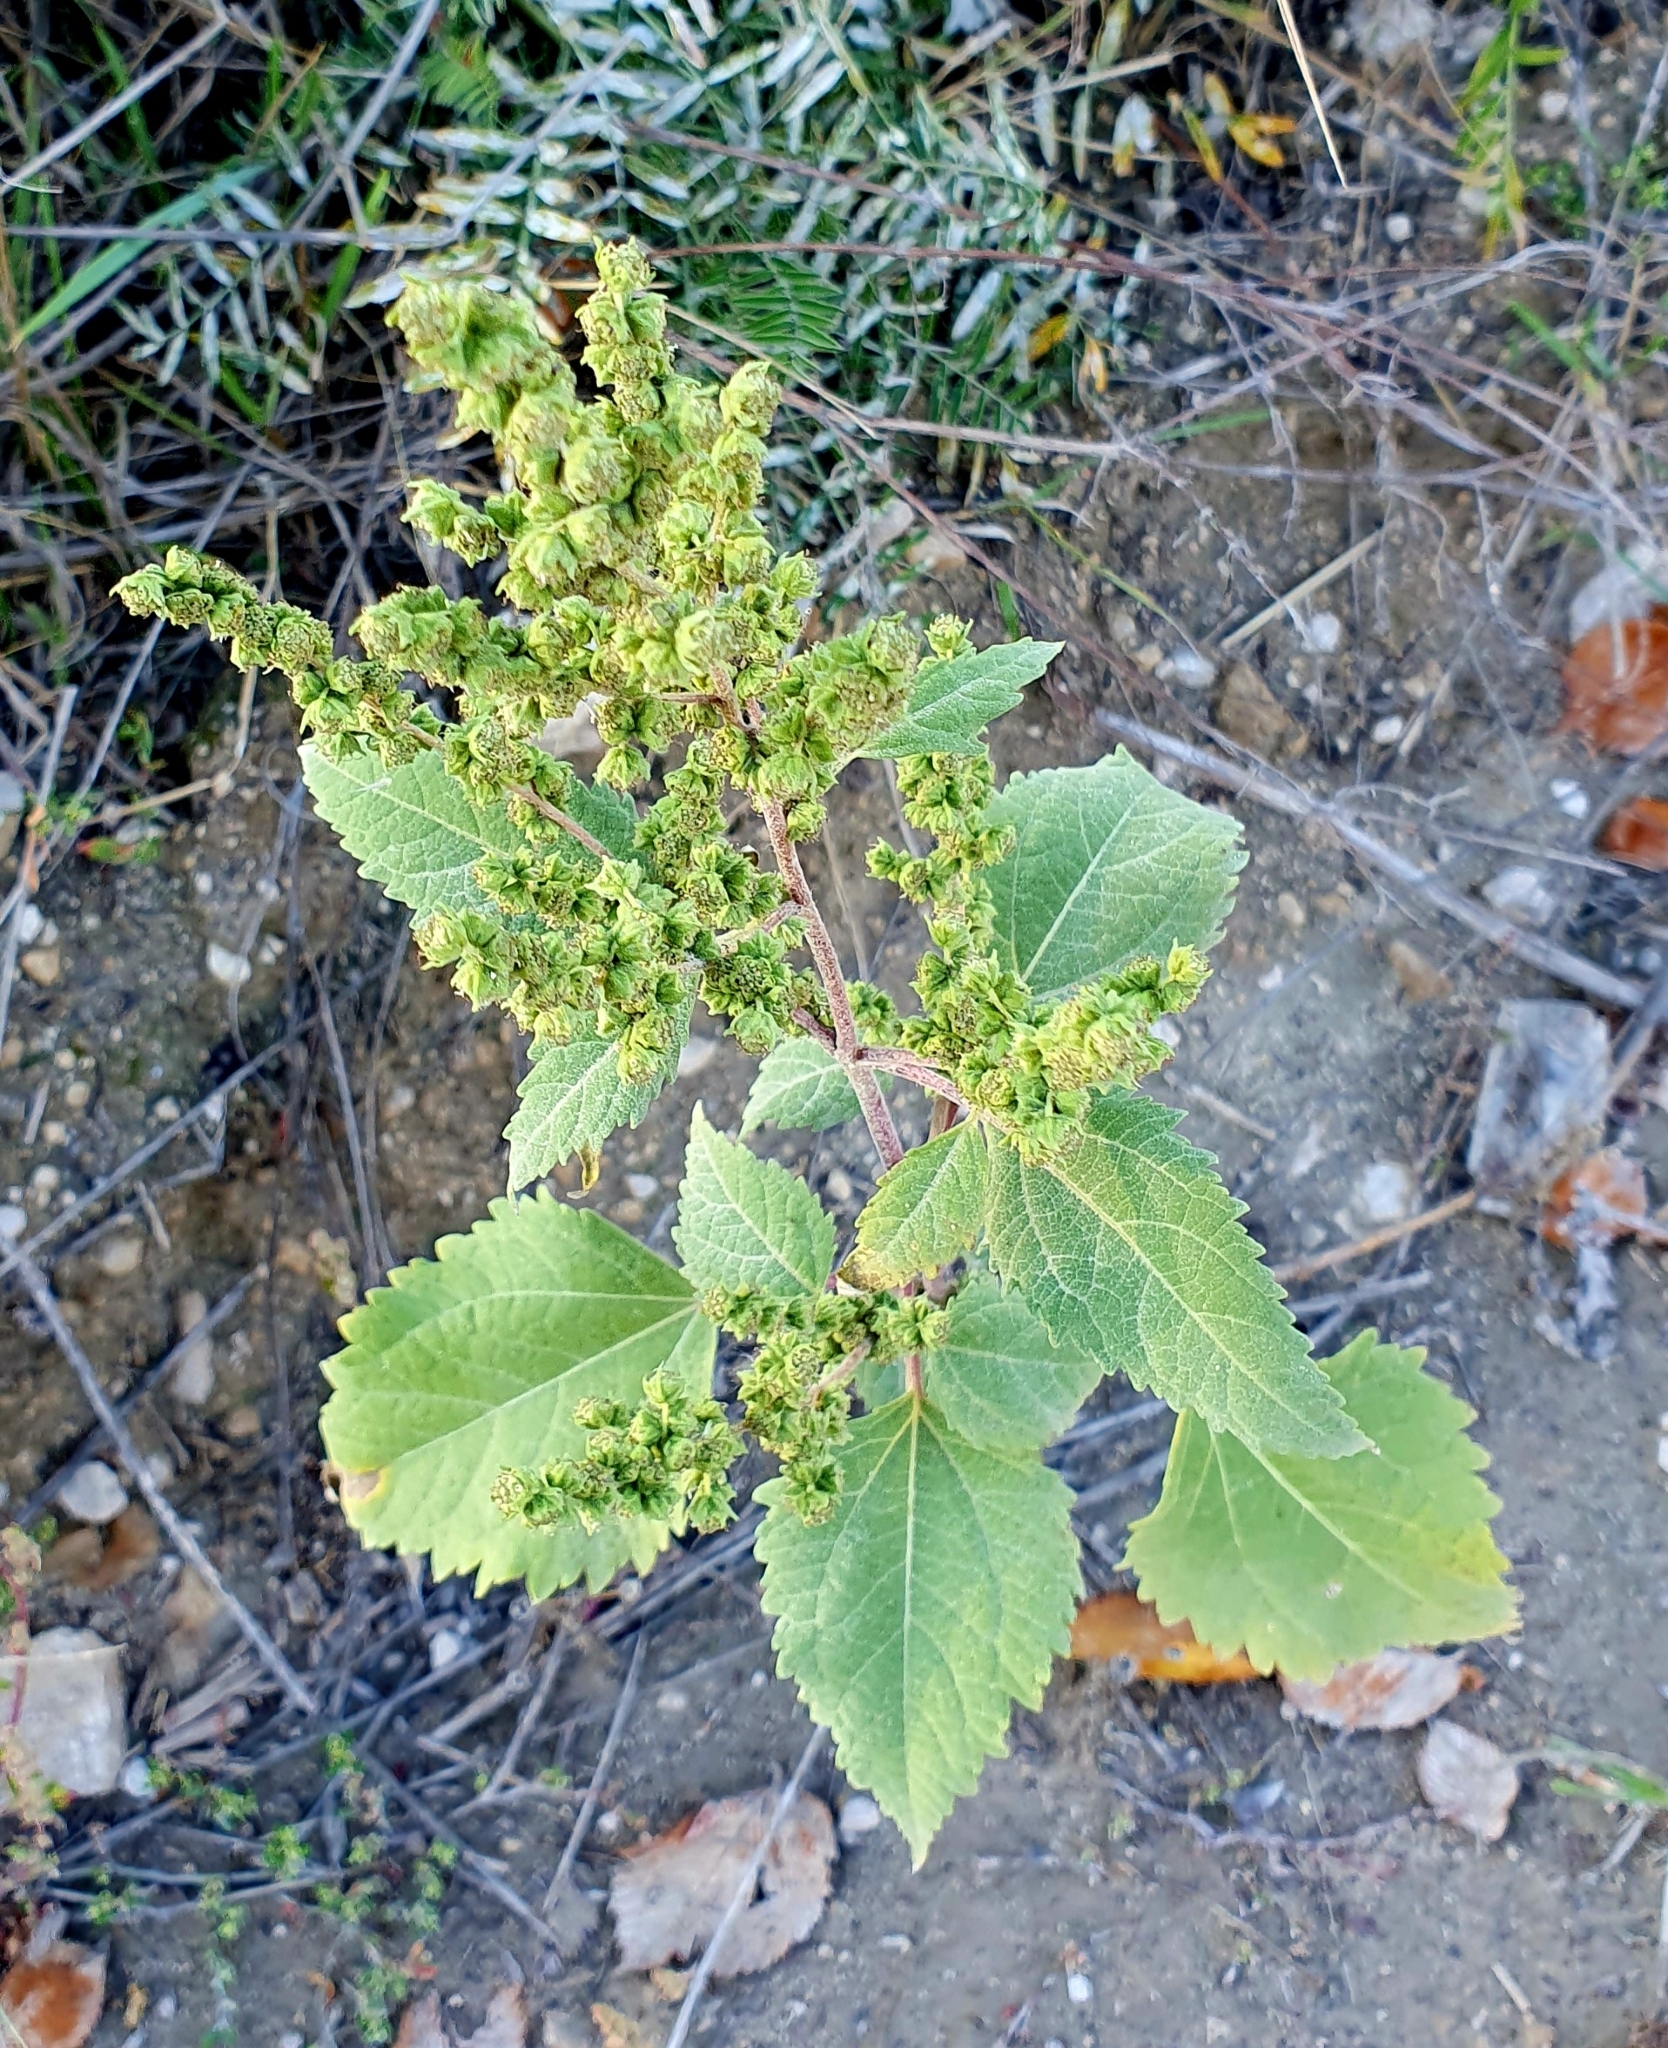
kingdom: Plantae
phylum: Tracheophyta
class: Magnoliopsida
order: Asterales
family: Asteraceae
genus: Cyclachaena
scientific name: Cyclachaena xanthiifolia
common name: Giant sumpweed
